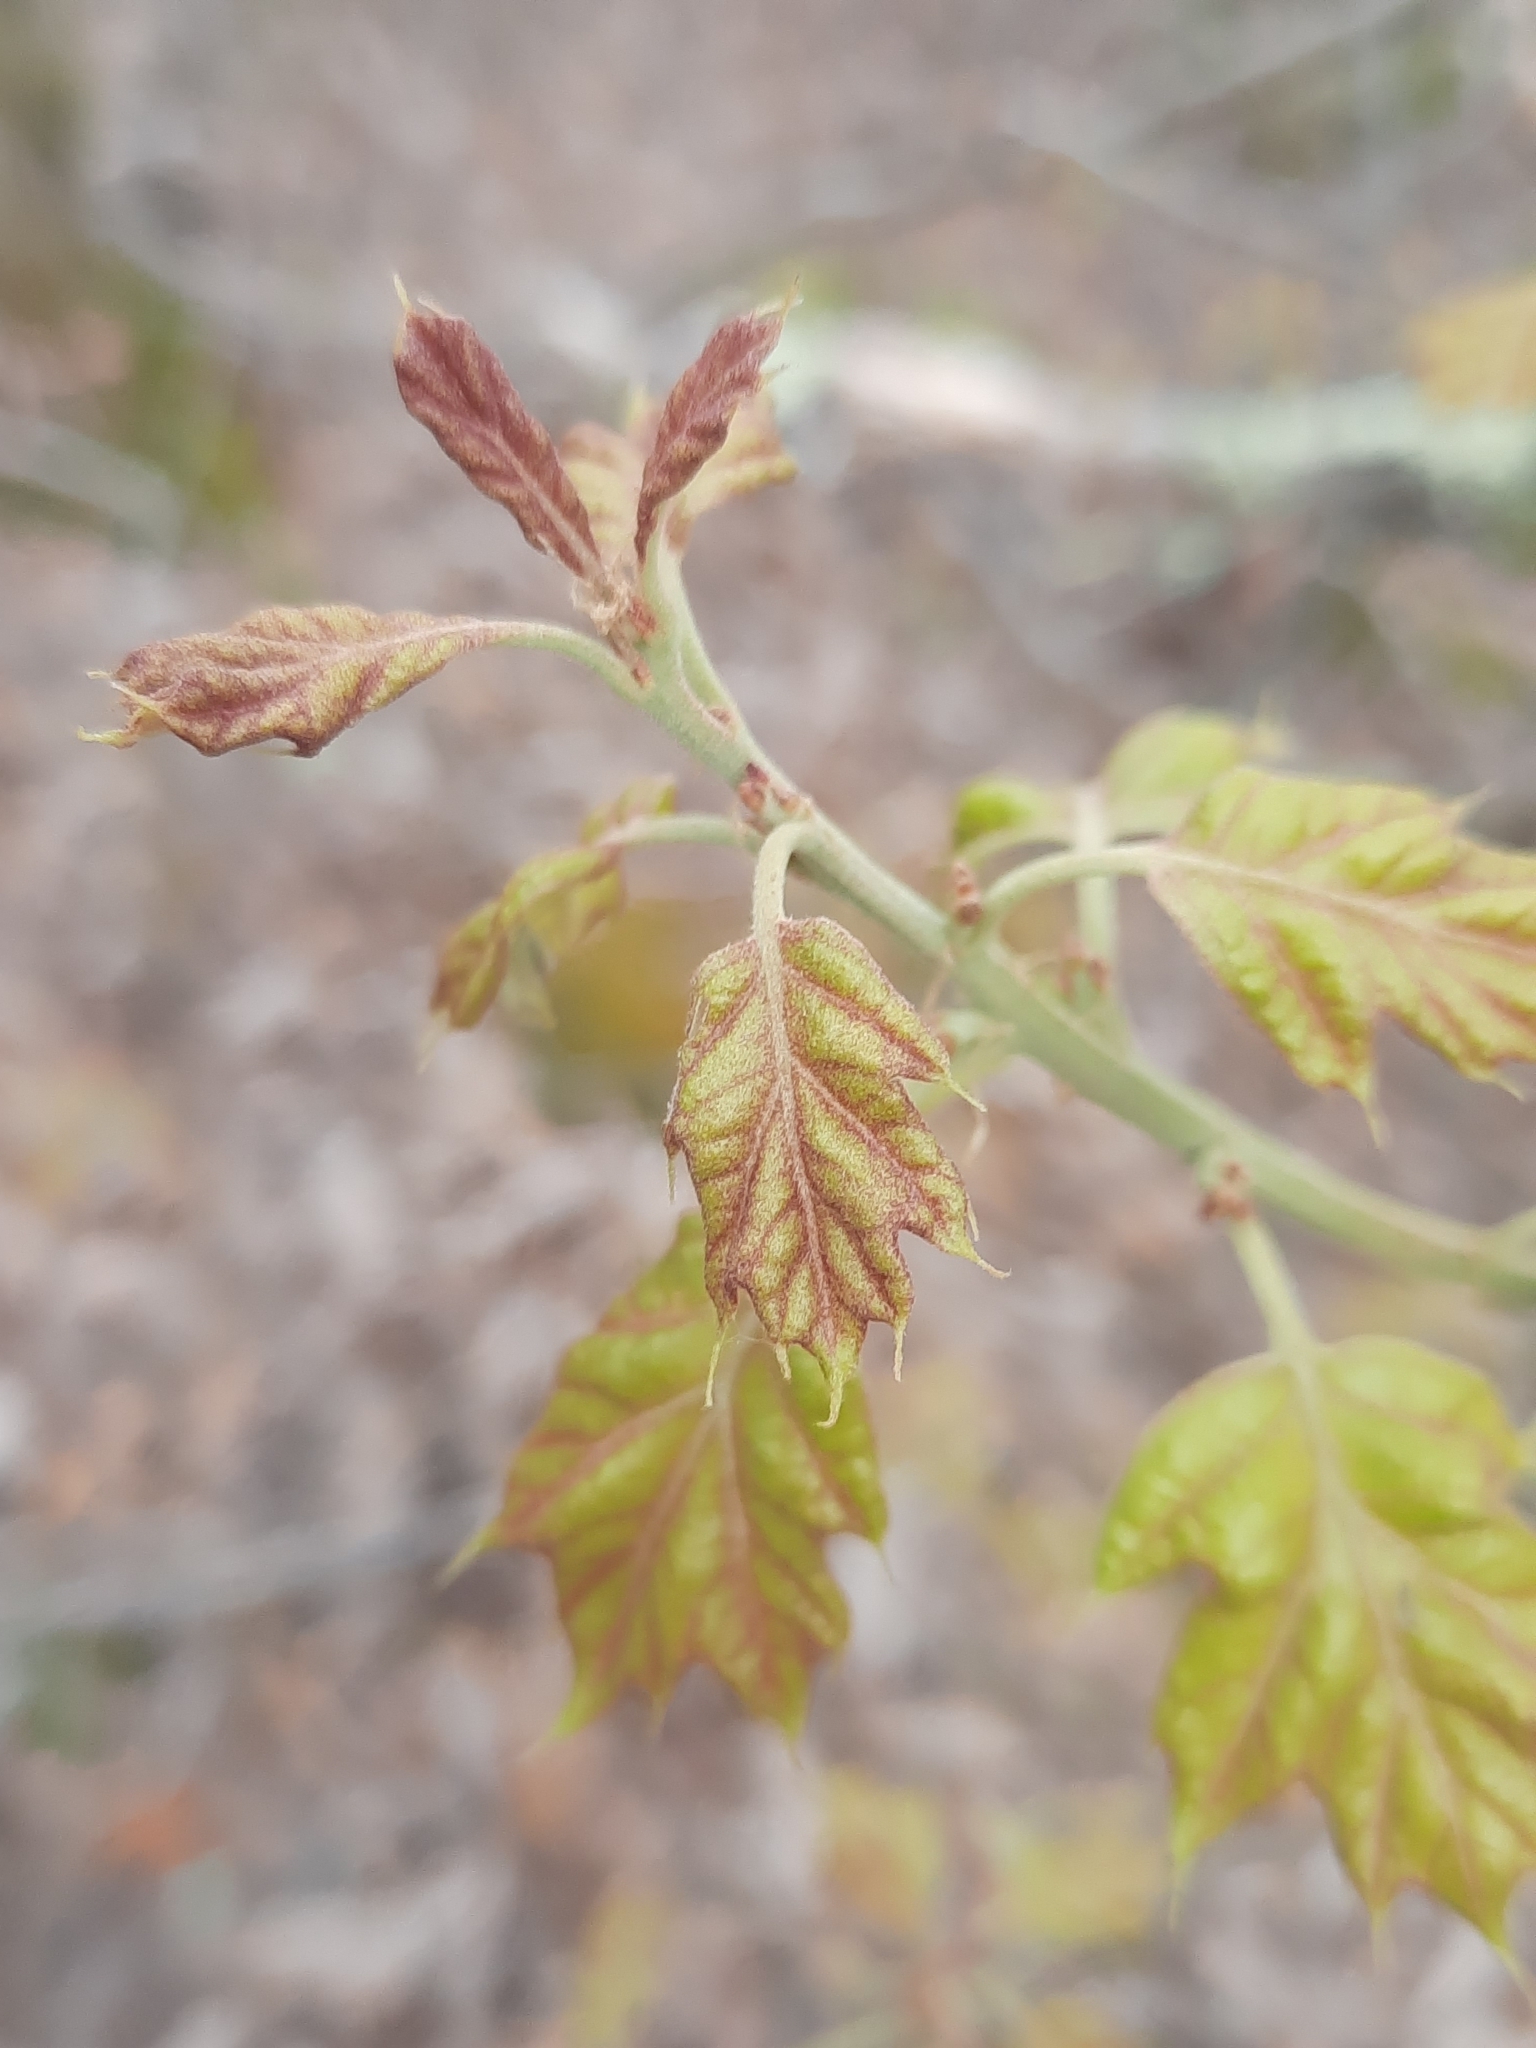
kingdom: Plantae
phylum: Tracheophyta
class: Magnoliopsida
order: Fagales
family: Fagaceae
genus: Quercus
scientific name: Quercus ilicifolia
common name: Bear oak
